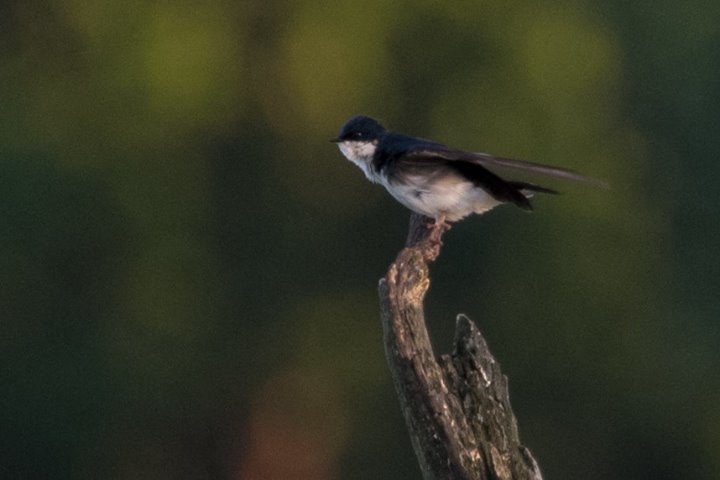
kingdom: Animalia
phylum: Chordata
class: Aves
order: Passeriformes
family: Hirundinidae
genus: Tachycineta
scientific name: Tachycineta bicolor
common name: Tree swallow
